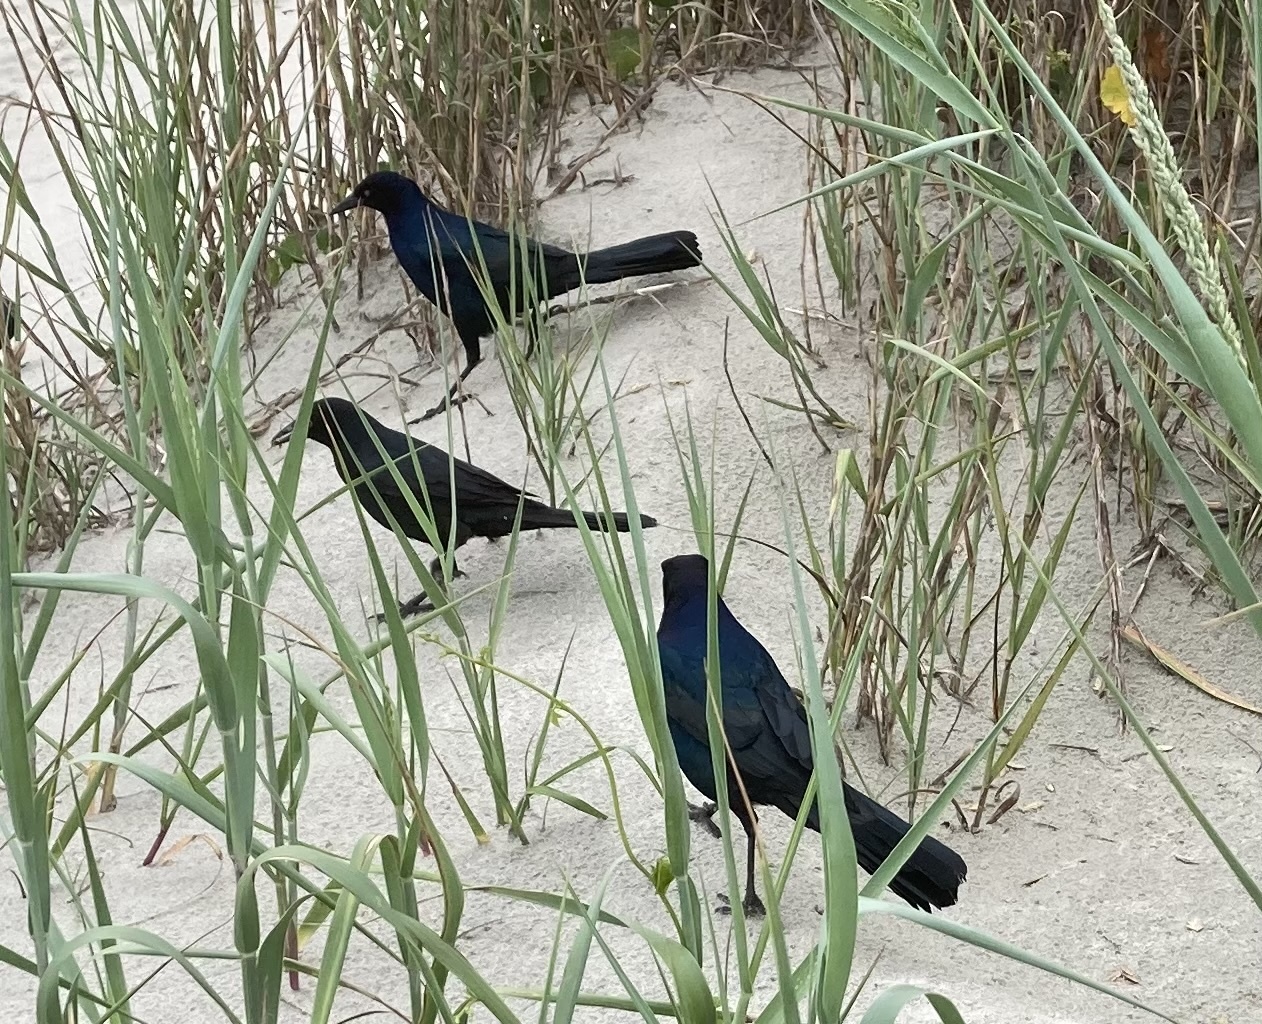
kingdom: Animalia
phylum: Chordata
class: Aves
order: Passeriformes
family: Icteridae
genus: Quiscalus
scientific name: Quiscalus major
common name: Boat-tailed grackle
